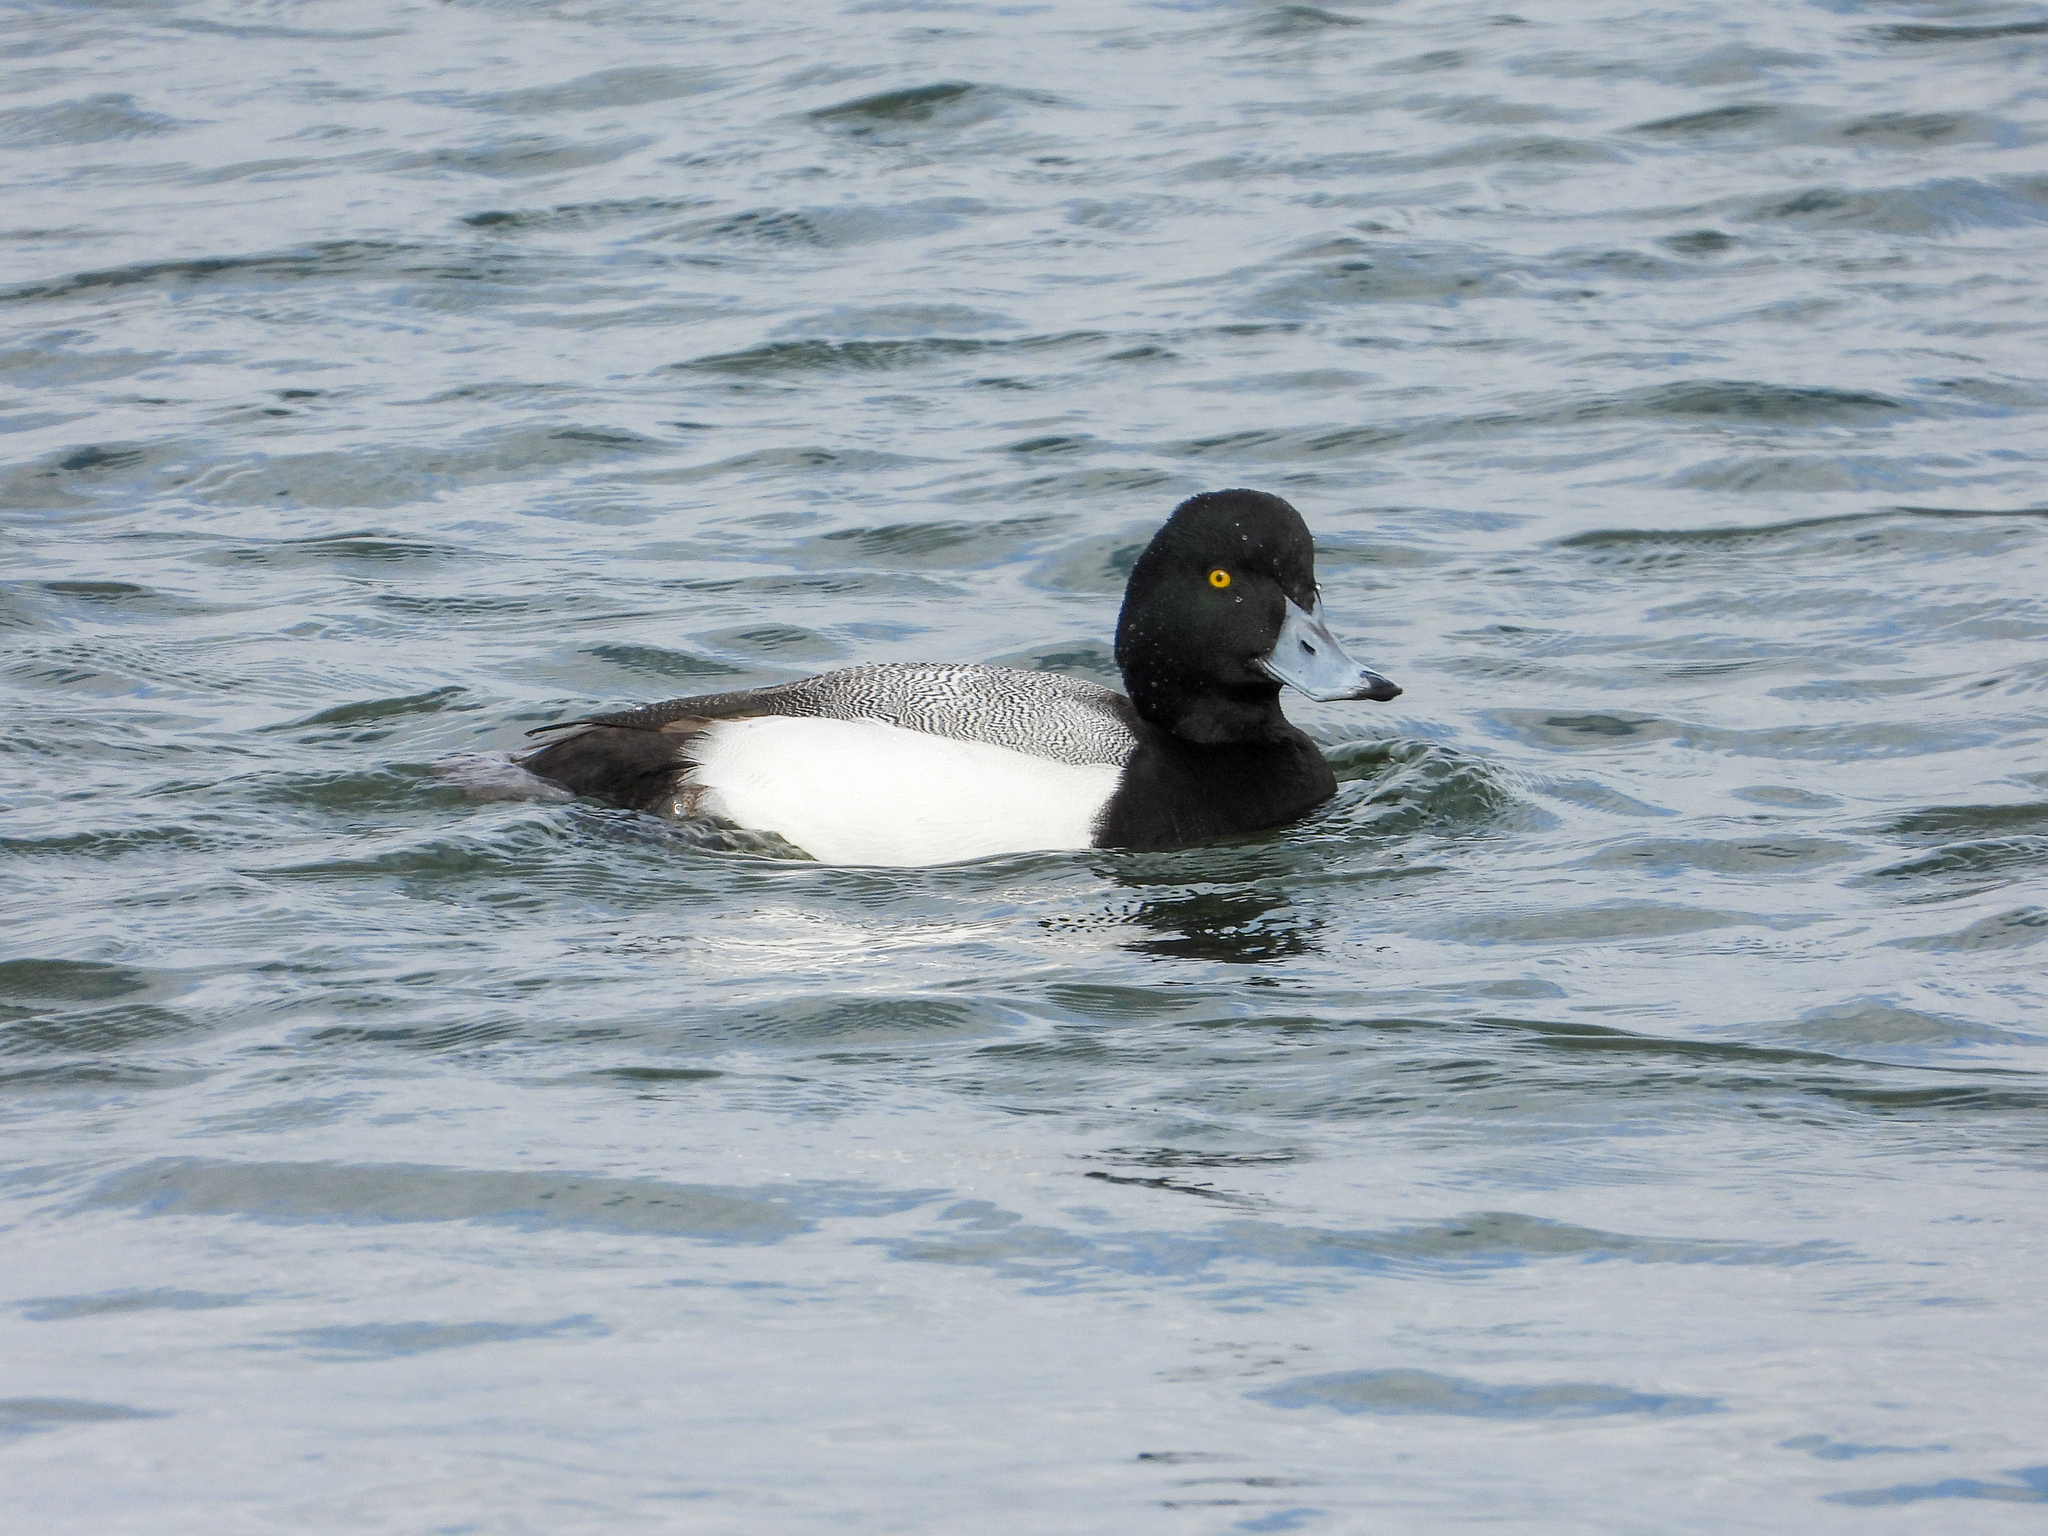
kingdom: Animalia
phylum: Chordata
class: Aves
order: Anseriformes
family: Anatidae
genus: Aythya
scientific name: Aythya marila
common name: Greater scaup
